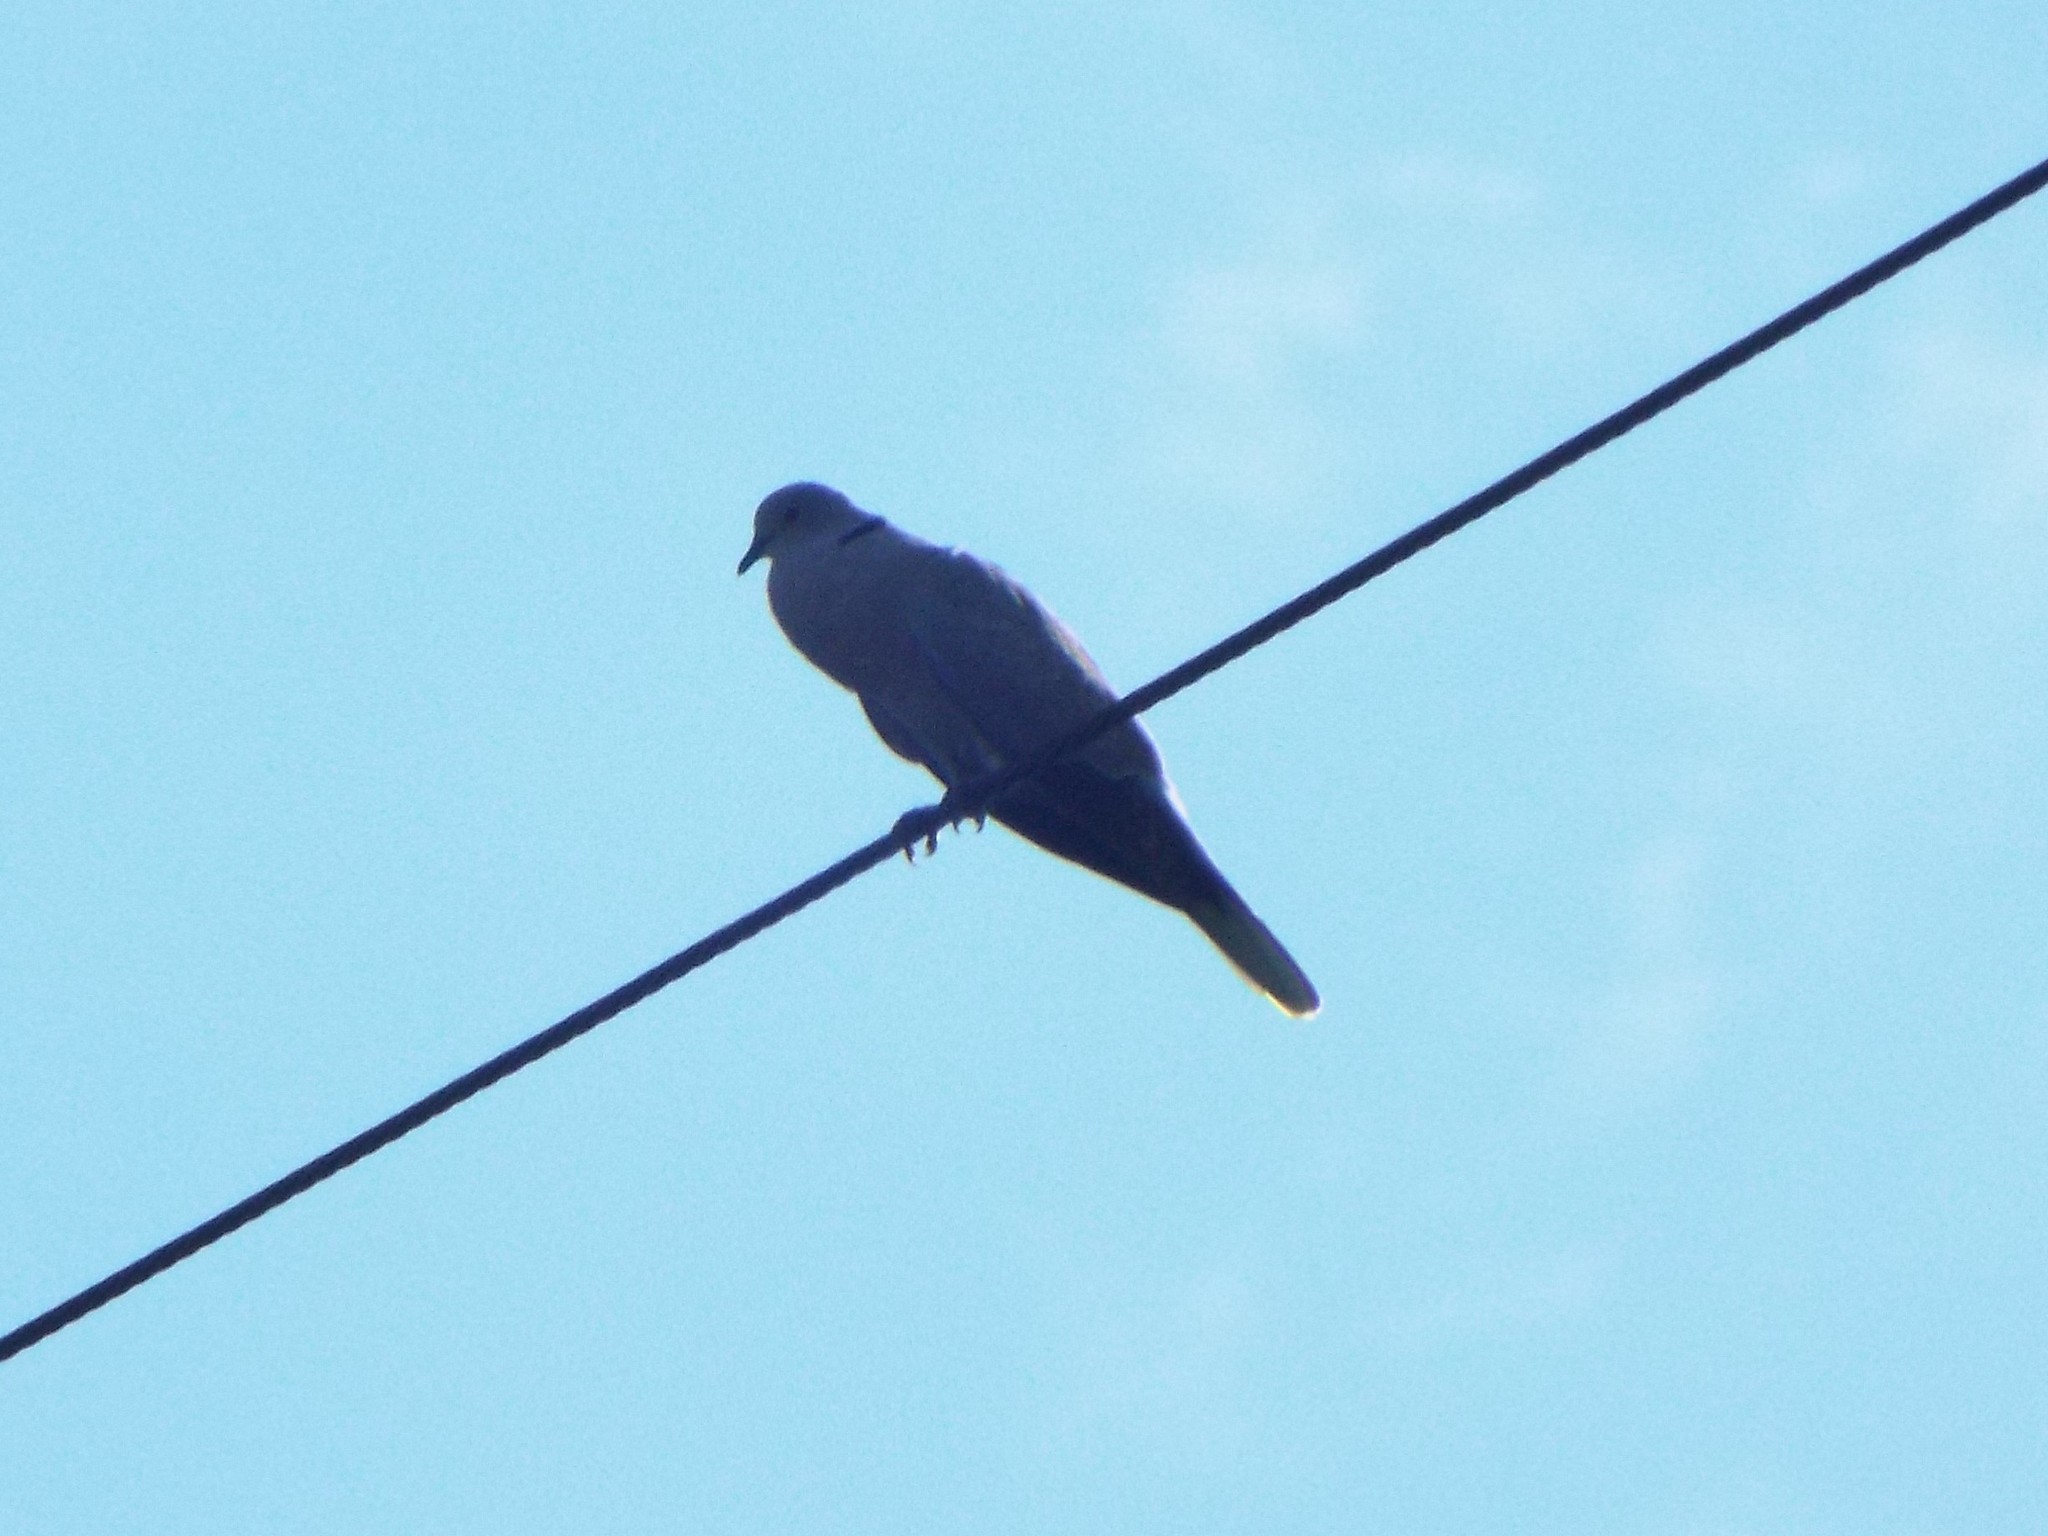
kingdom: Animalia
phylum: Chordata
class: Aves
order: Columbiformes
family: Columbidae
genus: Streptopelia
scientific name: Streptopelia decaocto
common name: Eurasian collared dove
